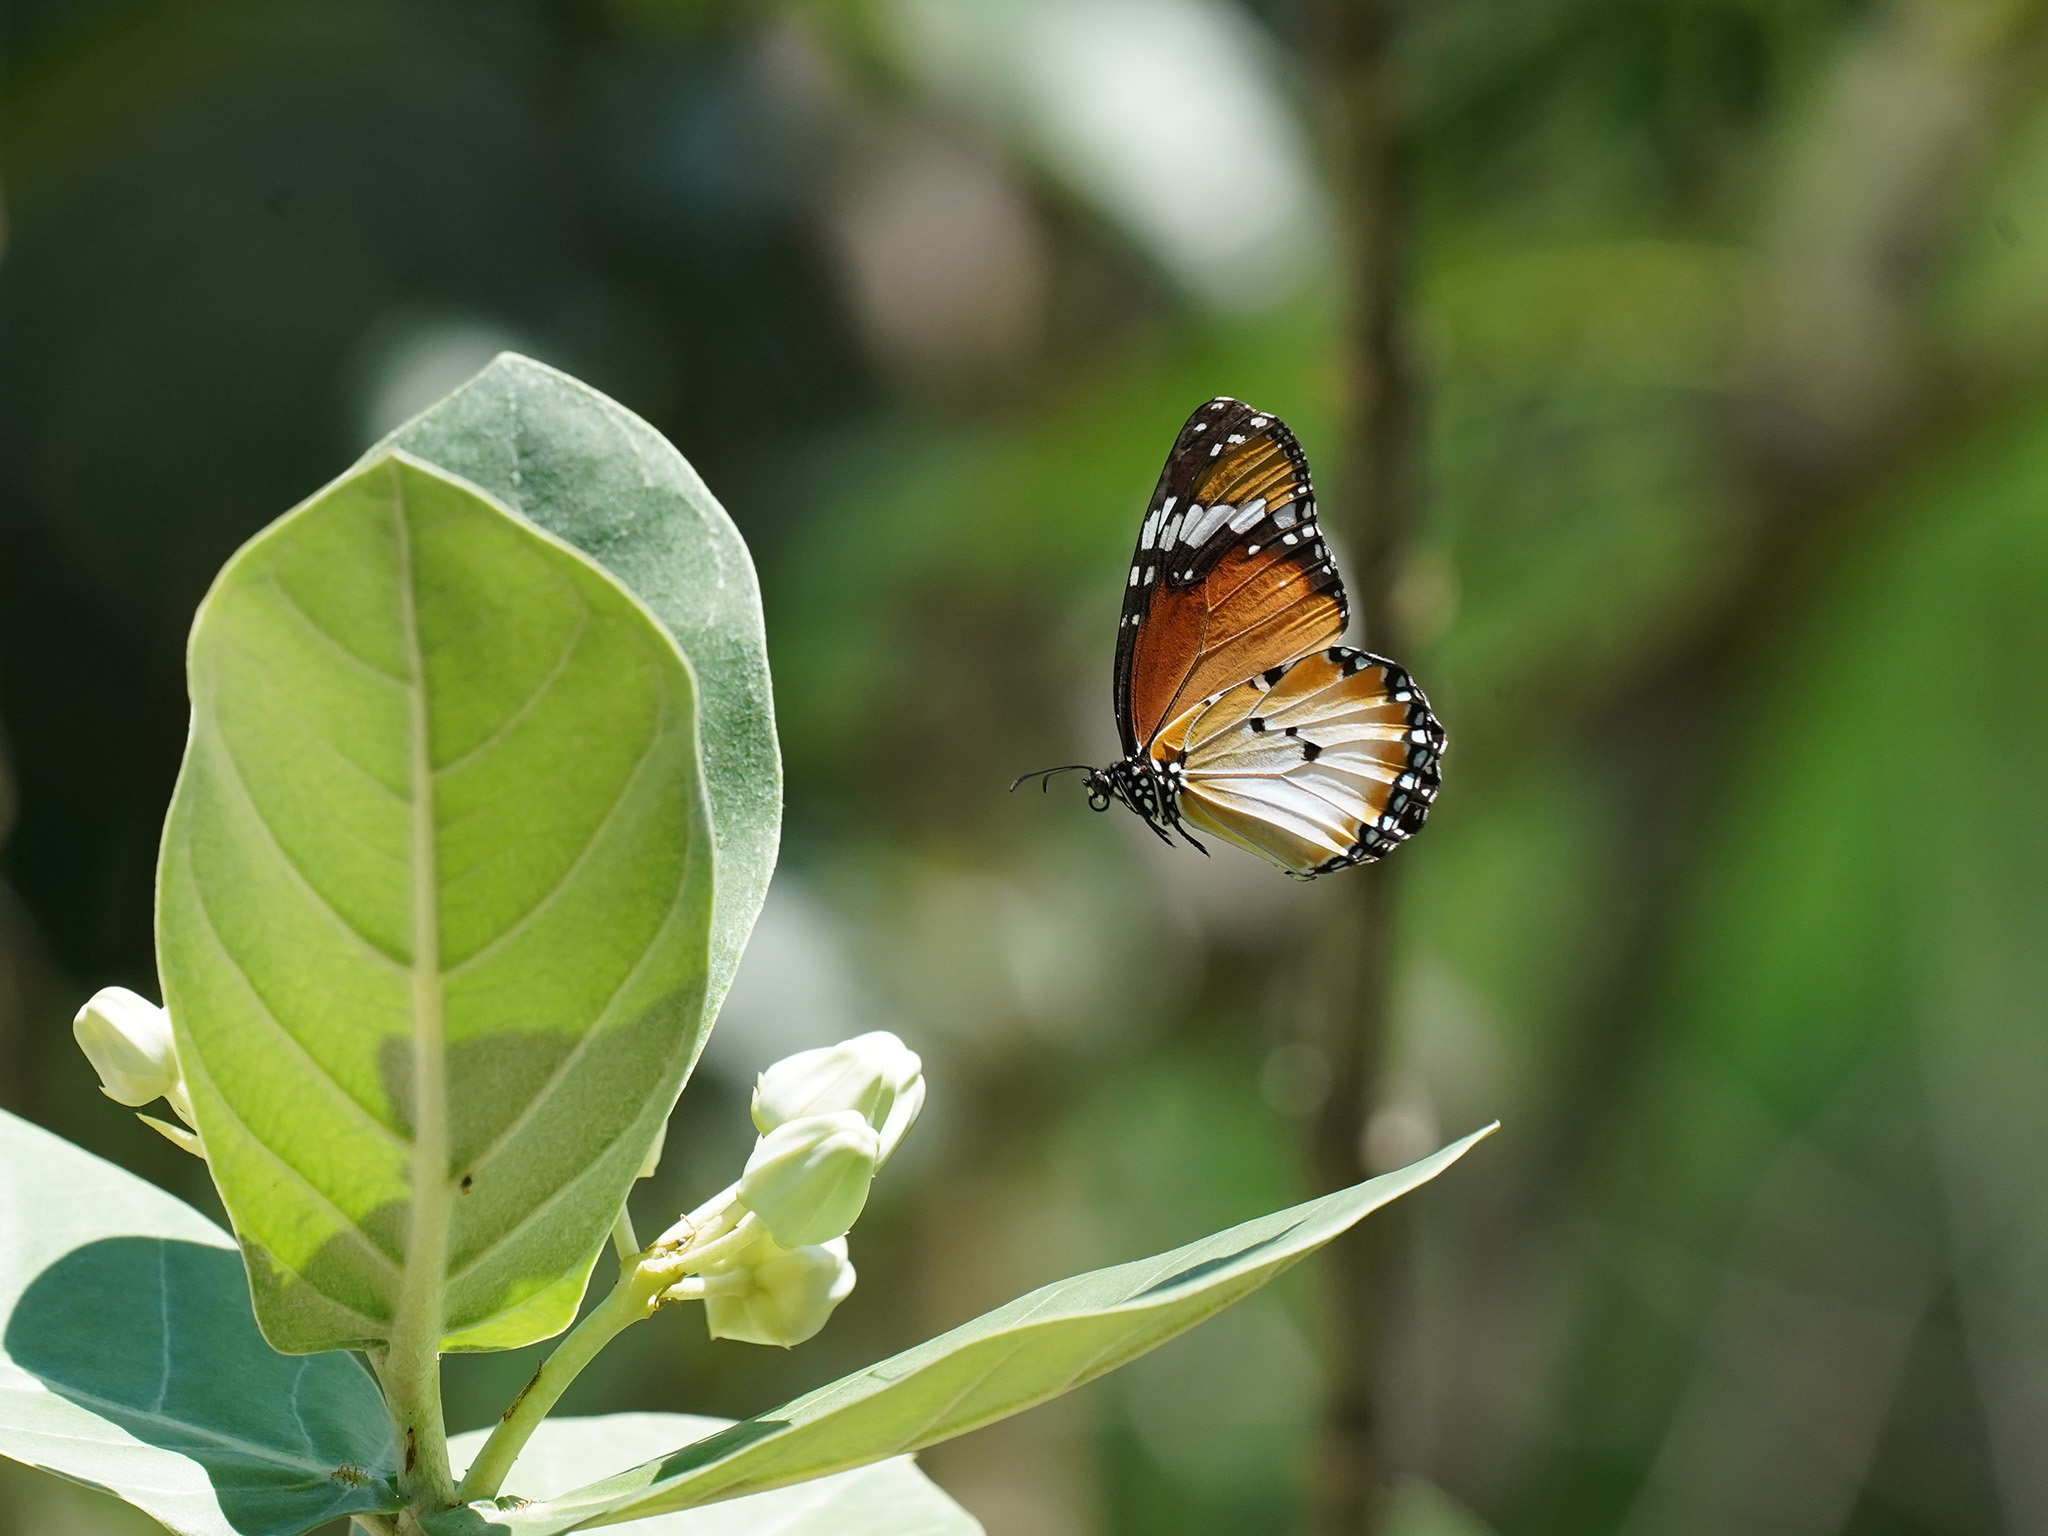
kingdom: Animalia
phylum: Arthropoda
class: Insecta
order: Lepidoptera
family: Nymphalidae
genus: Danaus
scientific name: Danaus chrysippus
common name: Plain tiger
